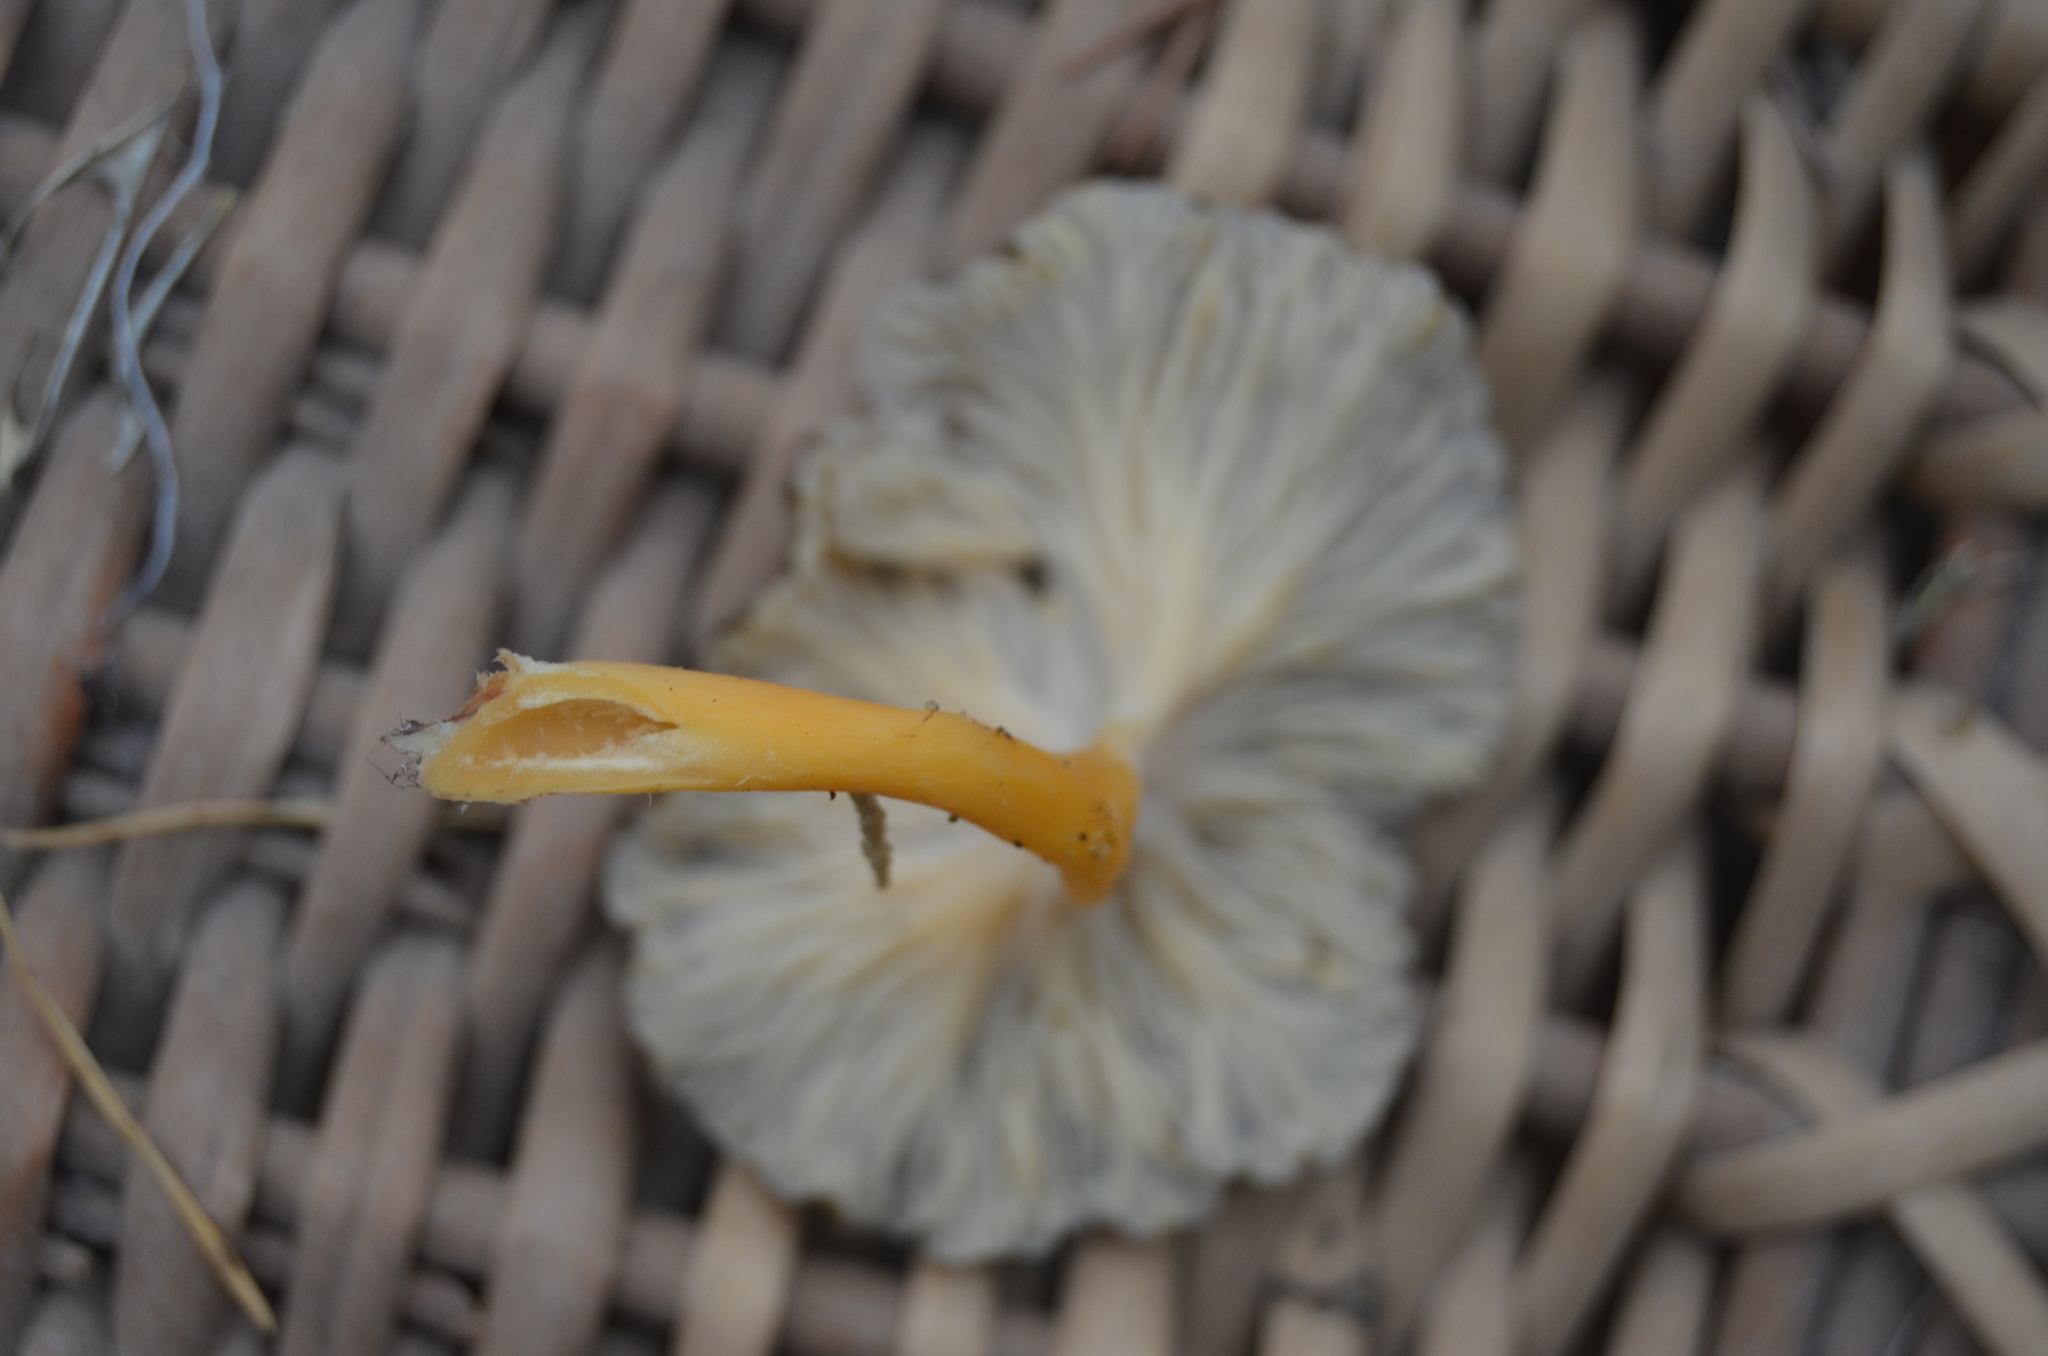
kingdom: Fungi
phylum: Basidiomycota
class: Agaricomycetes
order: Cantharellales
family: Hydnaceae
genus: Craterellus
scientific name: Craterellus lutescens
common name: Golden chanterelle
